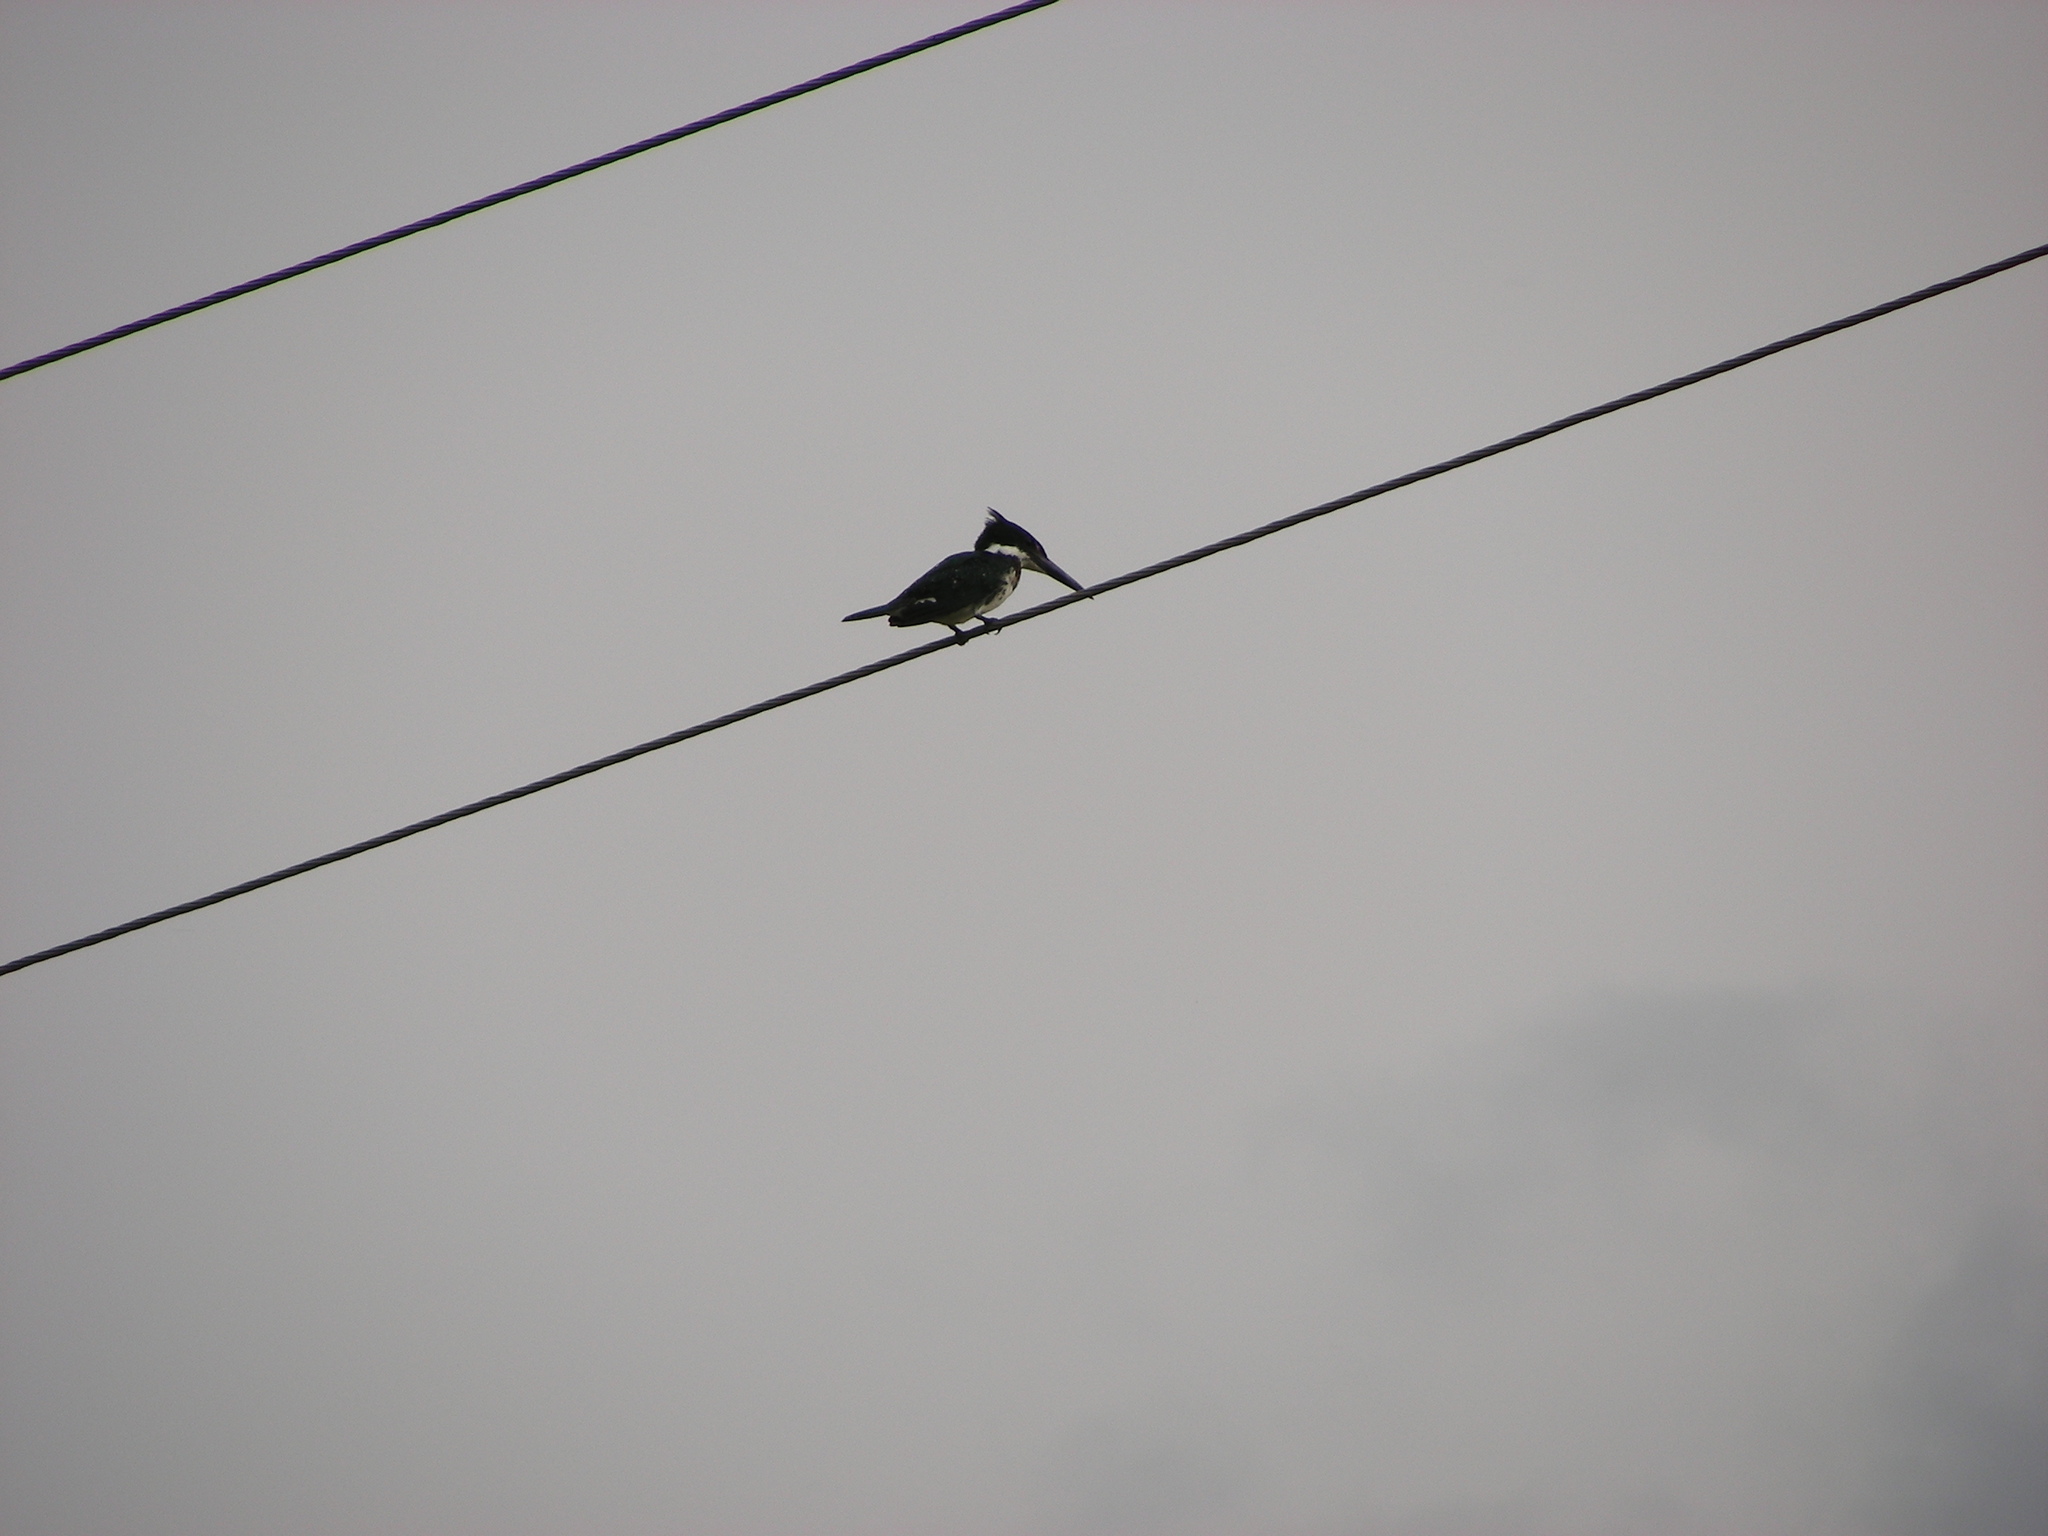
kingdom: Animalia
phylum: Chordata
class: Aves
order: Coraciiformes
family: Alcedinidae
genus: Chloroceryle
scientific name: Chloroceryle americana
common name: Green kingfisher
